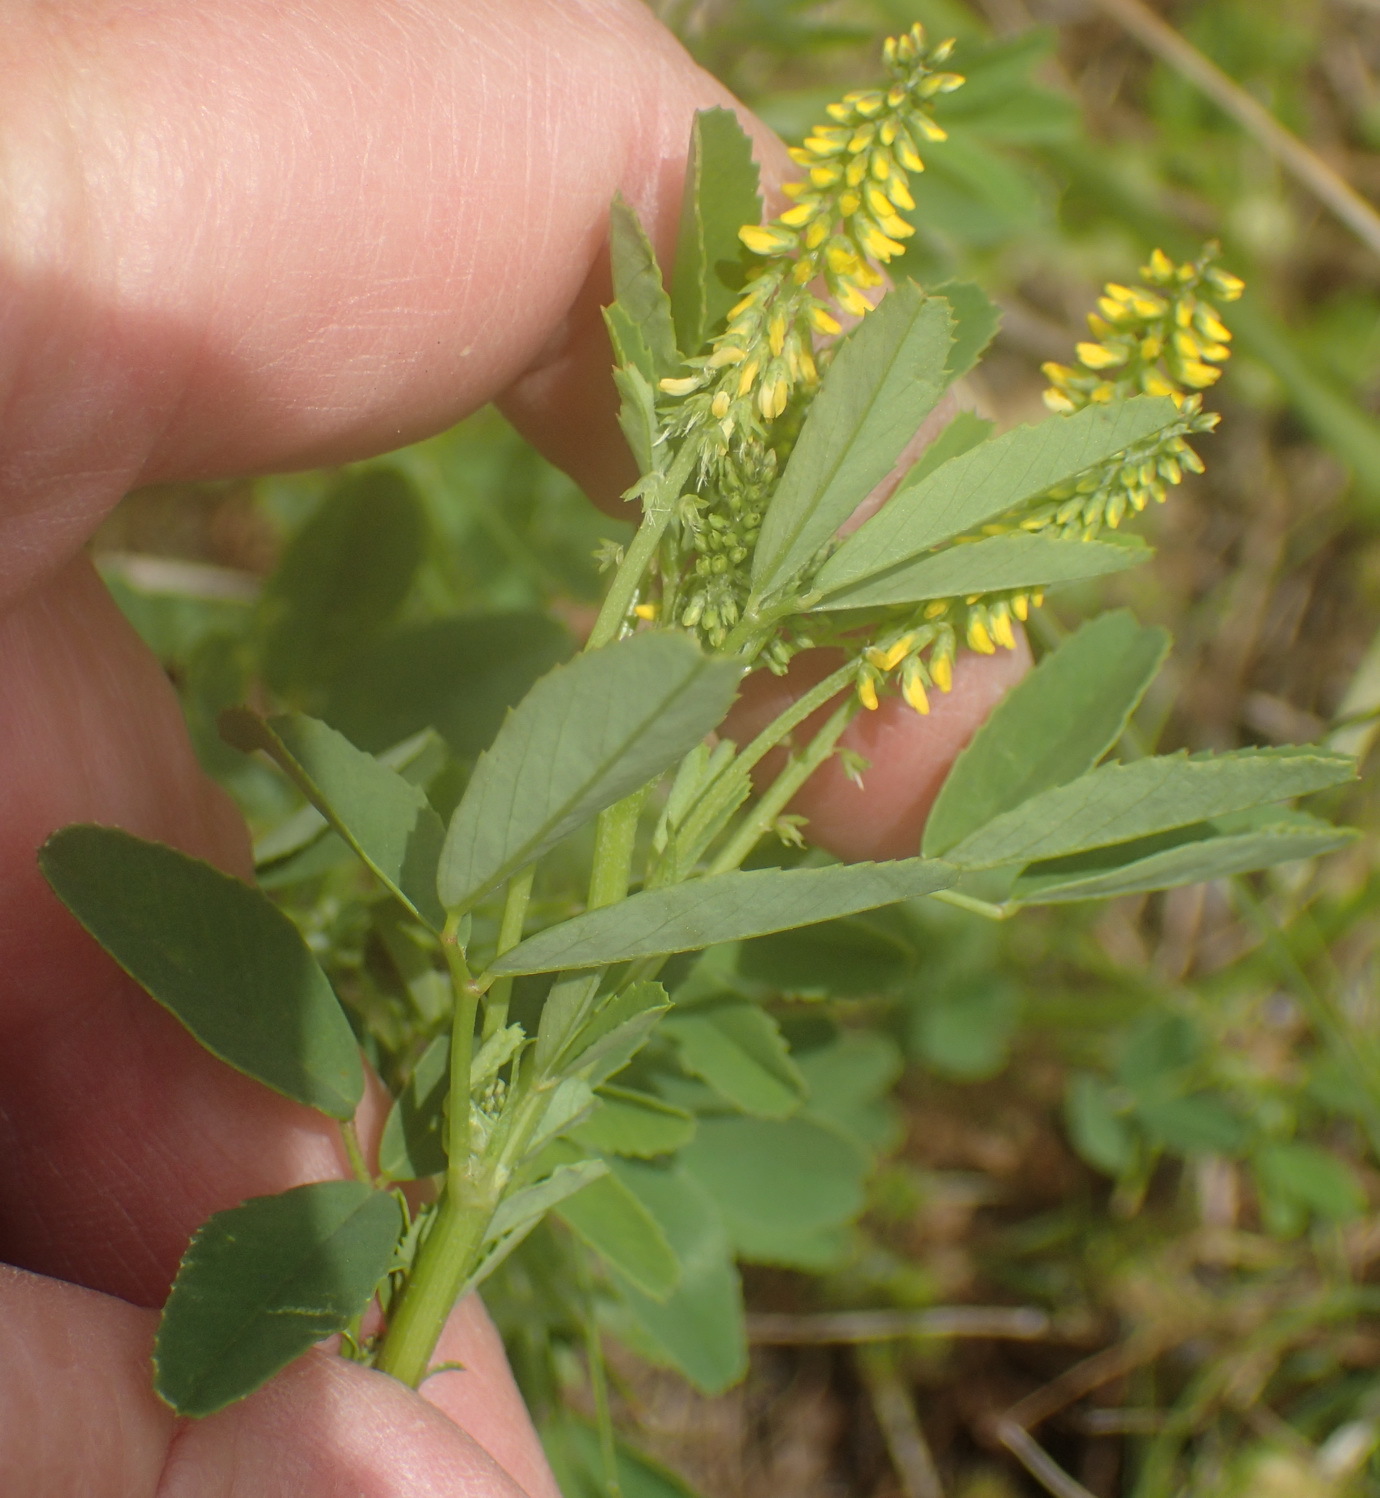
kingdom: Plantae
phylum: Tracheophyta
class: Magnoliopsida
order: Fabales
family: Fabaceae
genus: Melilotus
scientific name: Melilotus indicus
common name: Small melilot
